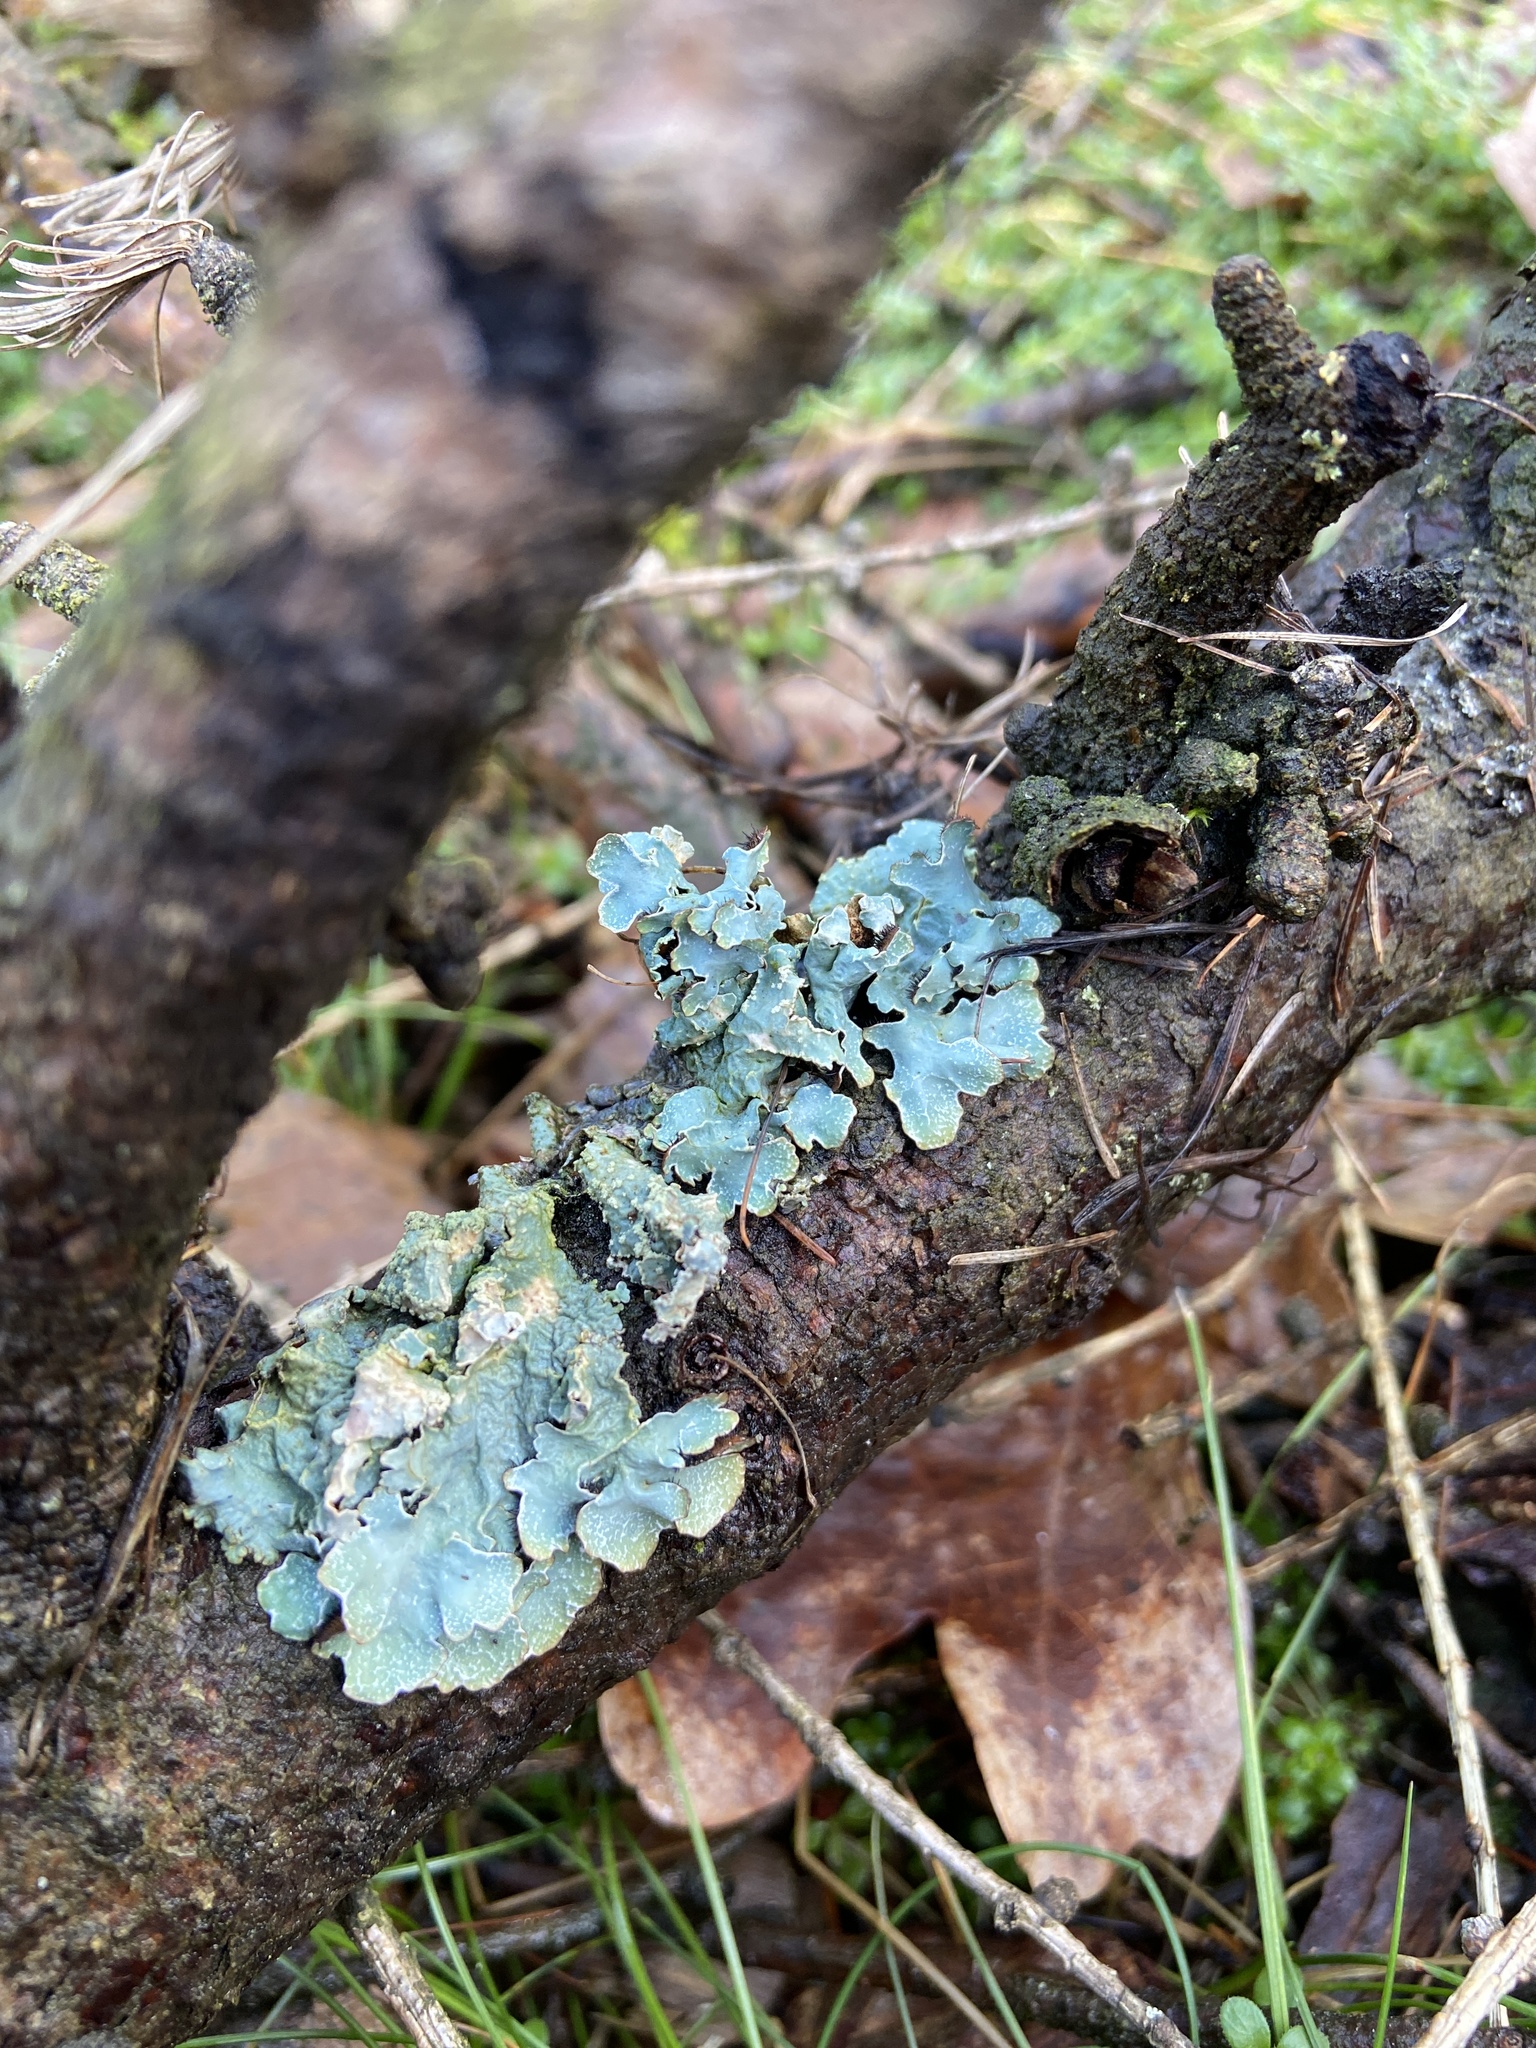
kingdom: Fungi
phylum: Ascomycota
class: Lecanoromycetes
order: Lecanorales
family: Parmeliaceae
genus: Parmelia
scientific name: Parmelia sulcata
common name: Netted shield lichen
